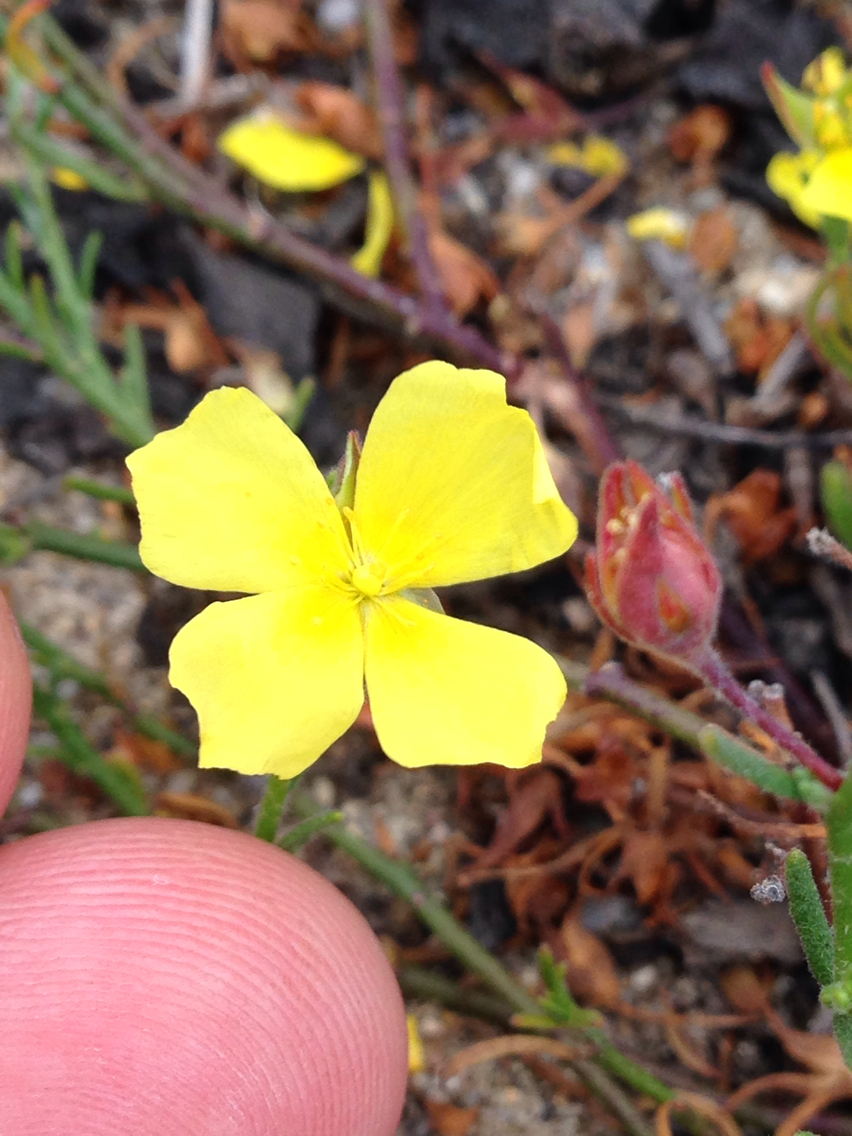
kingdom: Plantae
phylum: Tracheophyta
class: Magnoliopsida
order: Malvales
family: Cistaceae
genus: Crocanthemum
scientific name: Crocanthemum scoparium
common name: Broom-rose
